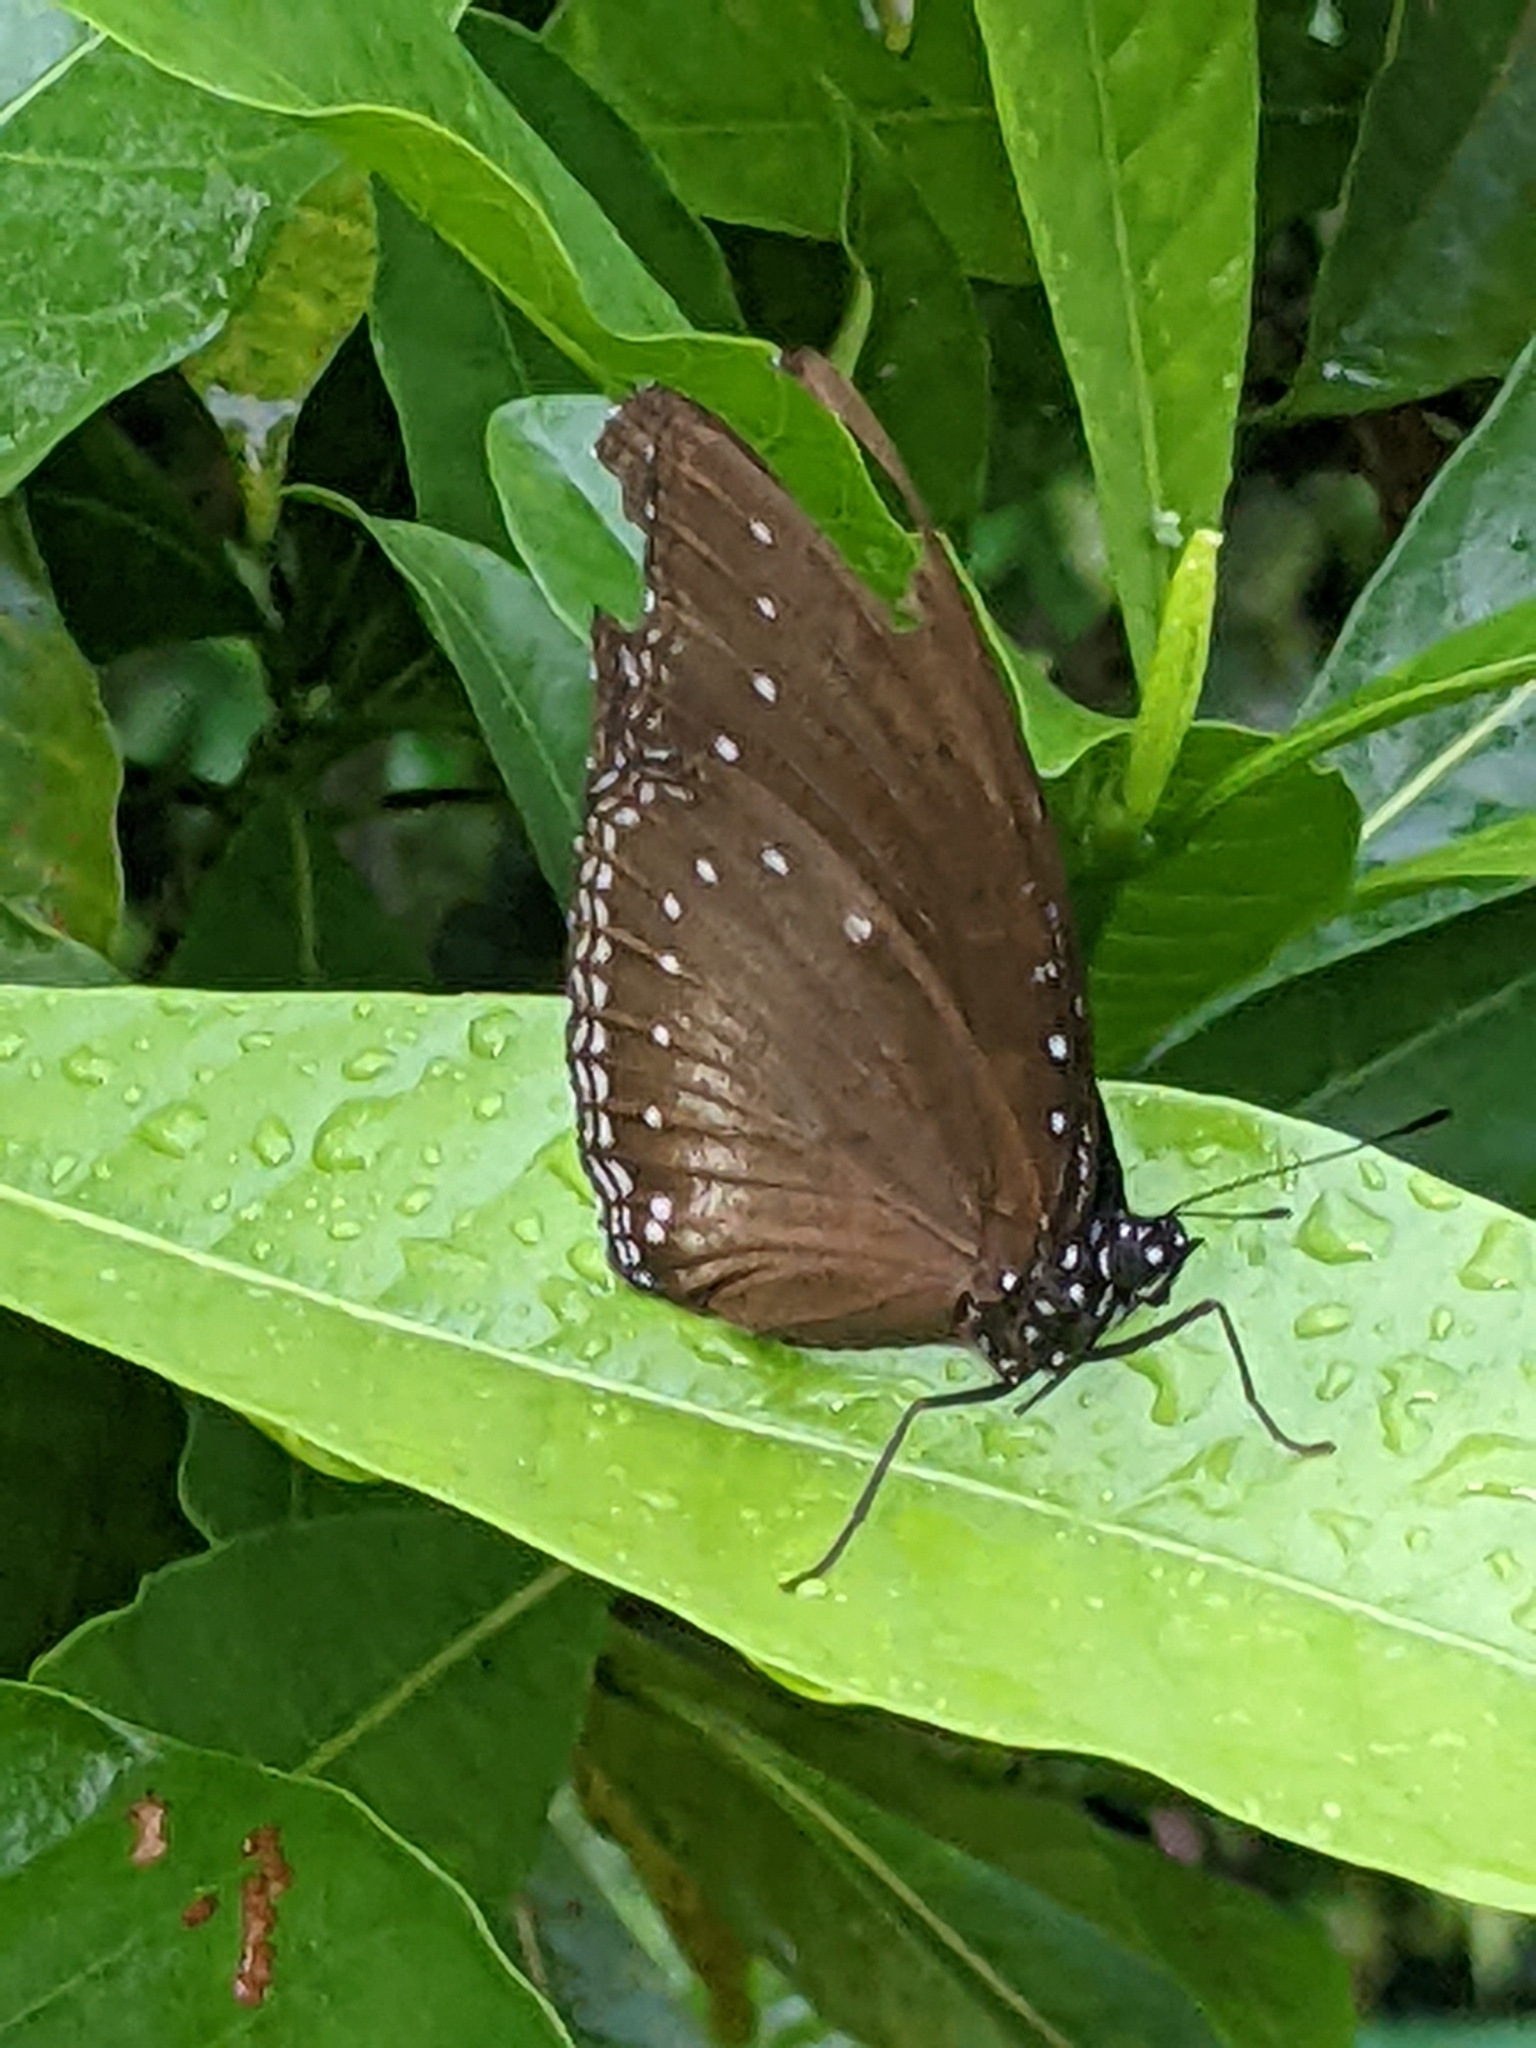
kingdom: Animalia
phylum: Arthropoda
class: Insecta
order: Lepidoptera
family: Nymphalidae
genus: Hypolimnas
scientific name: Hypolimnas anomala
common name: Malayan eggfly
